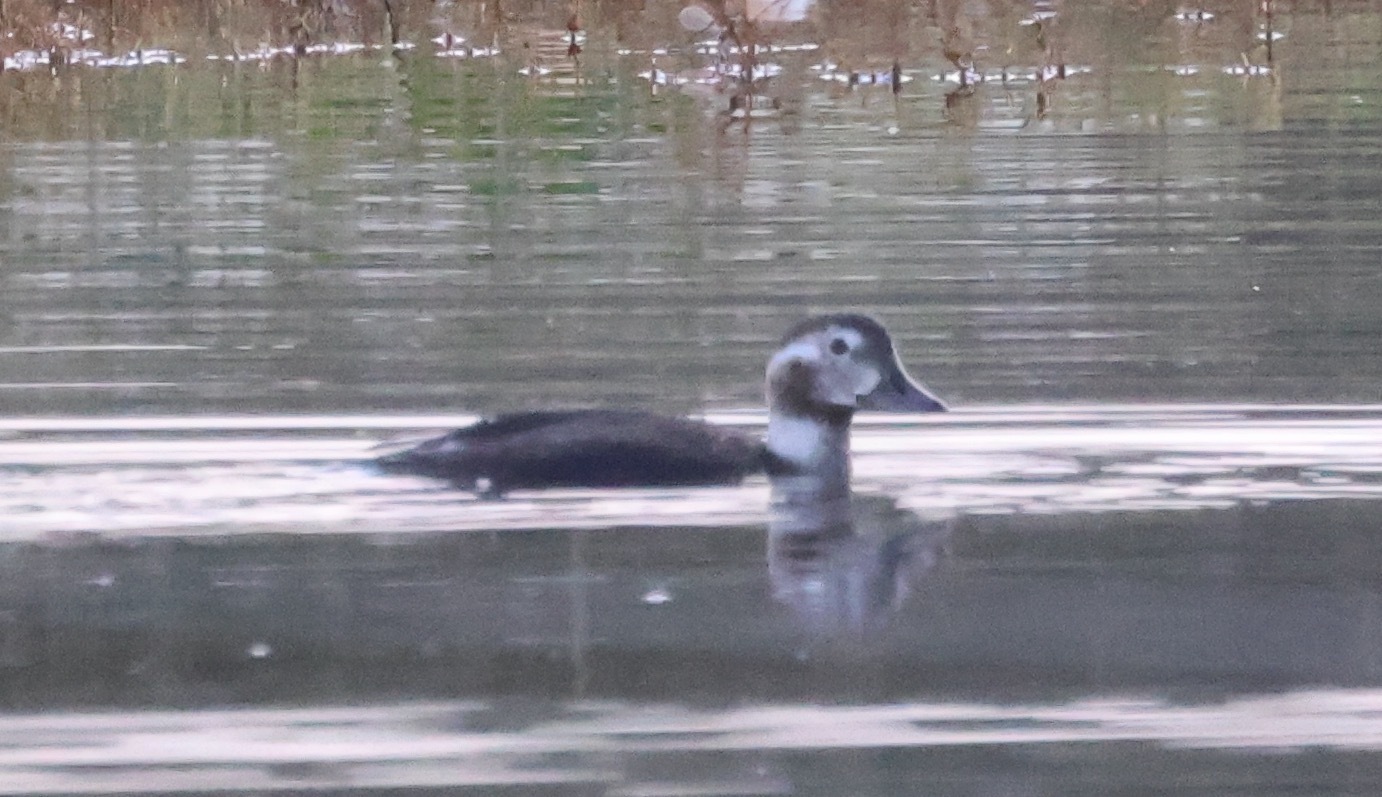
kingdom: Animalia
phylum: Chordata
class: Aves
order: Anseriformes
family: Anatidae
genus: Clangula
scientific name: Clangula hyemalis
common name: Long-tailed duck
